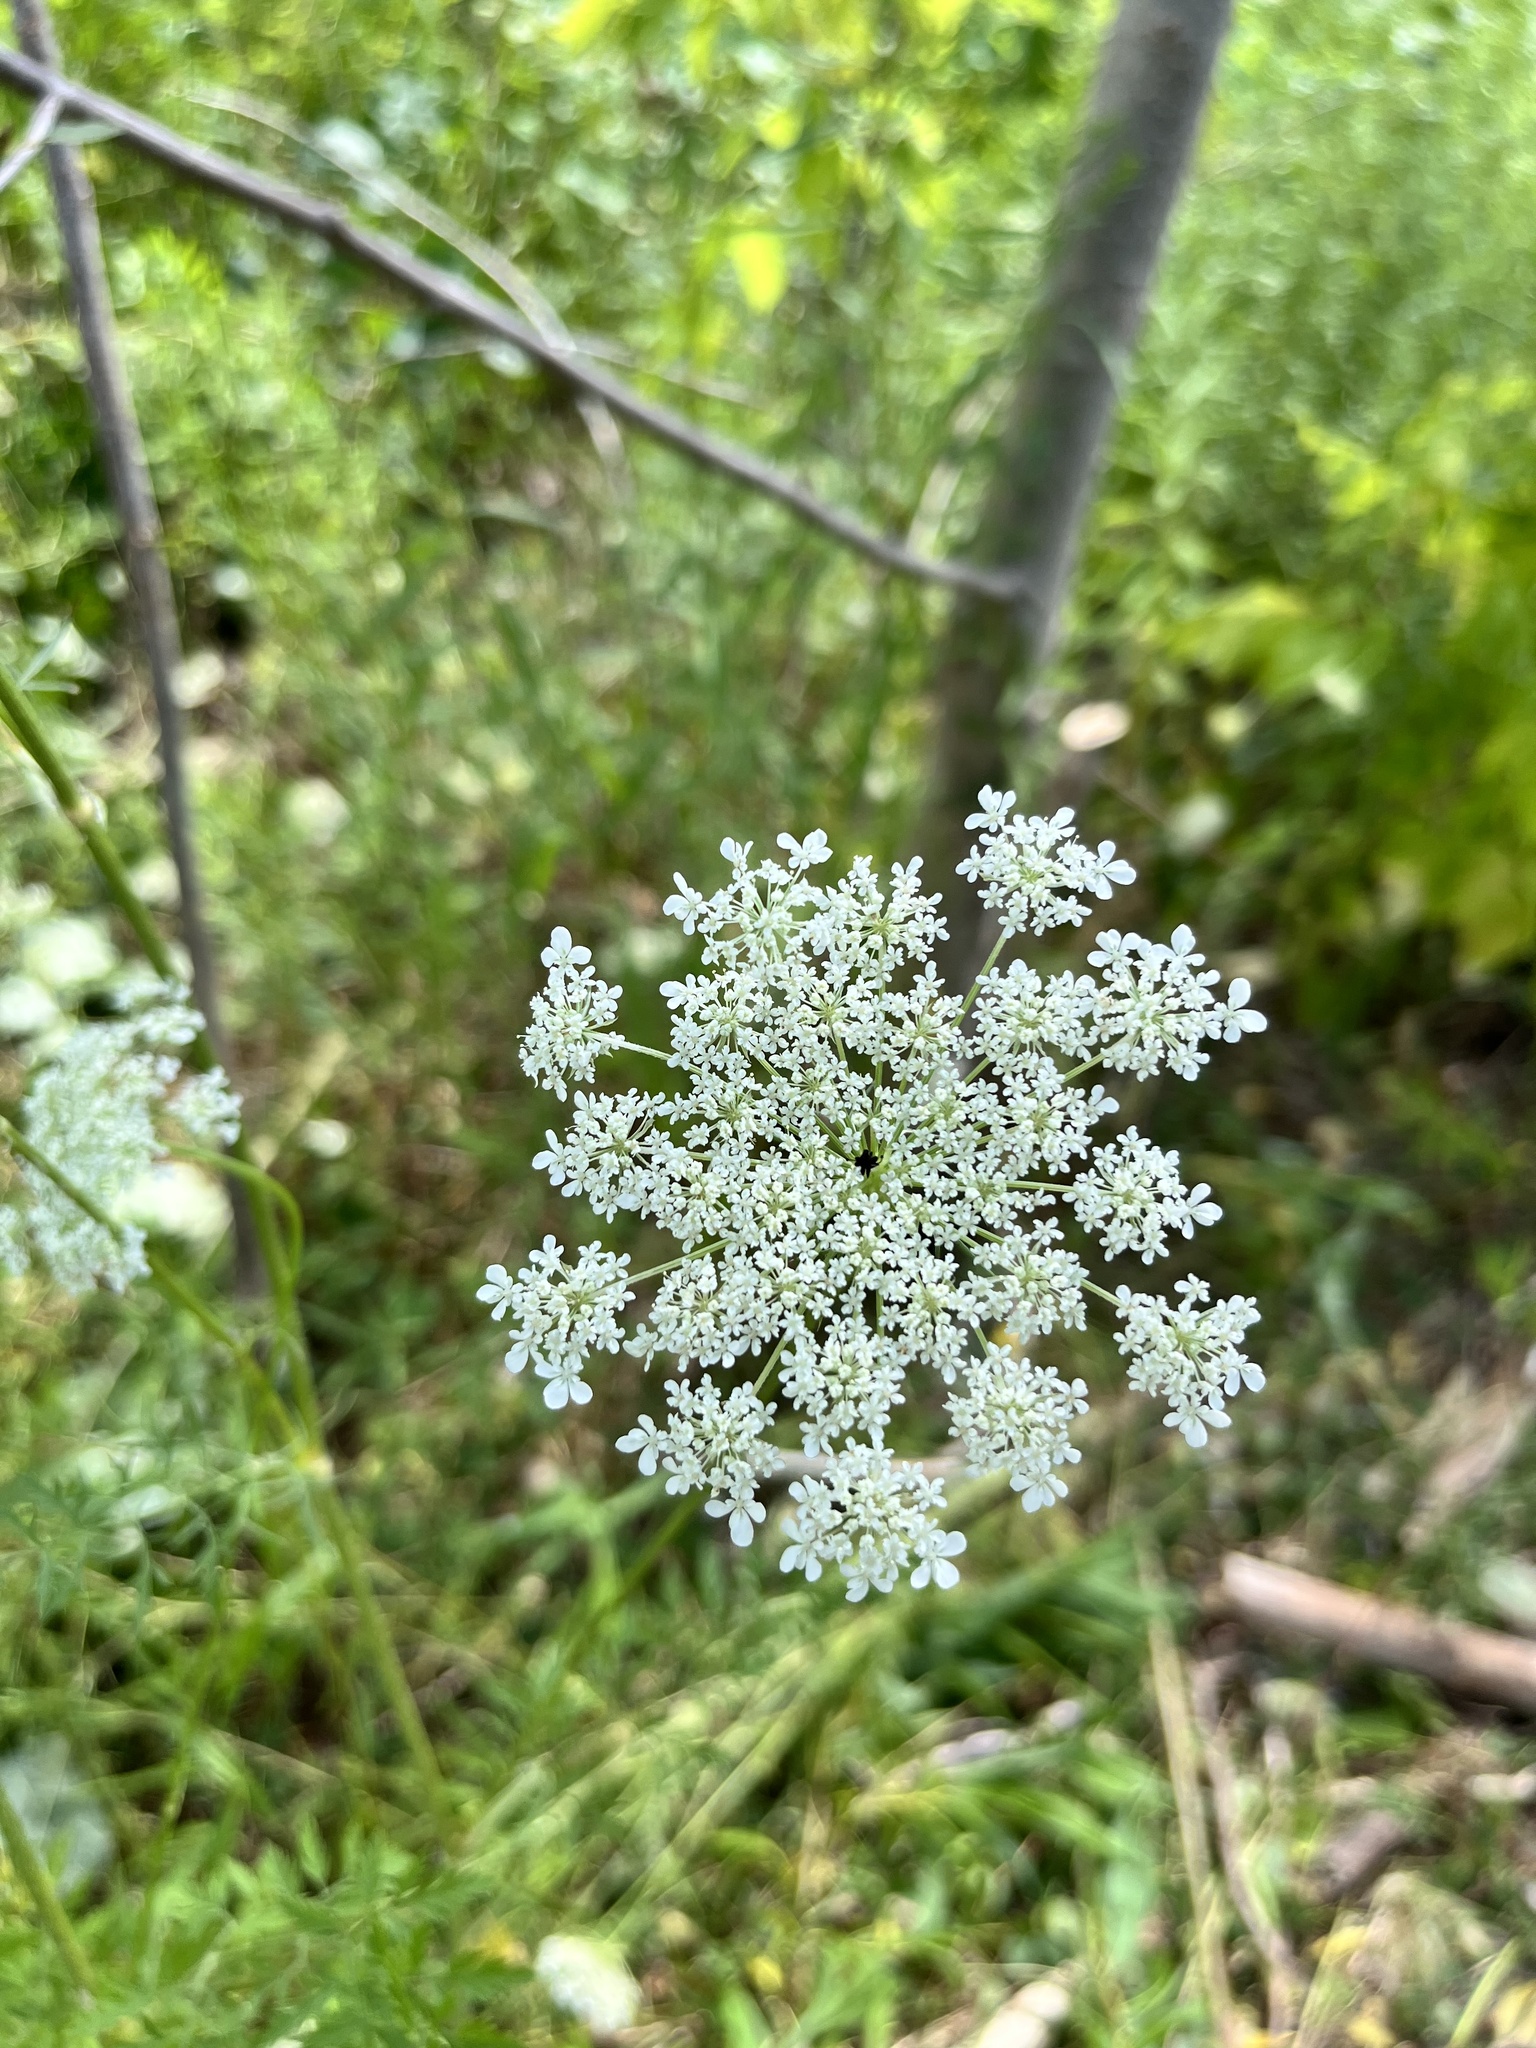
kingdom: Plantae
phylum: Tracheophyta
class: Magnoliopsida
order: Apiales
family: Apiaceae
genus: Daucus
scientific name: Daucus carota
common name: Wild carrot
